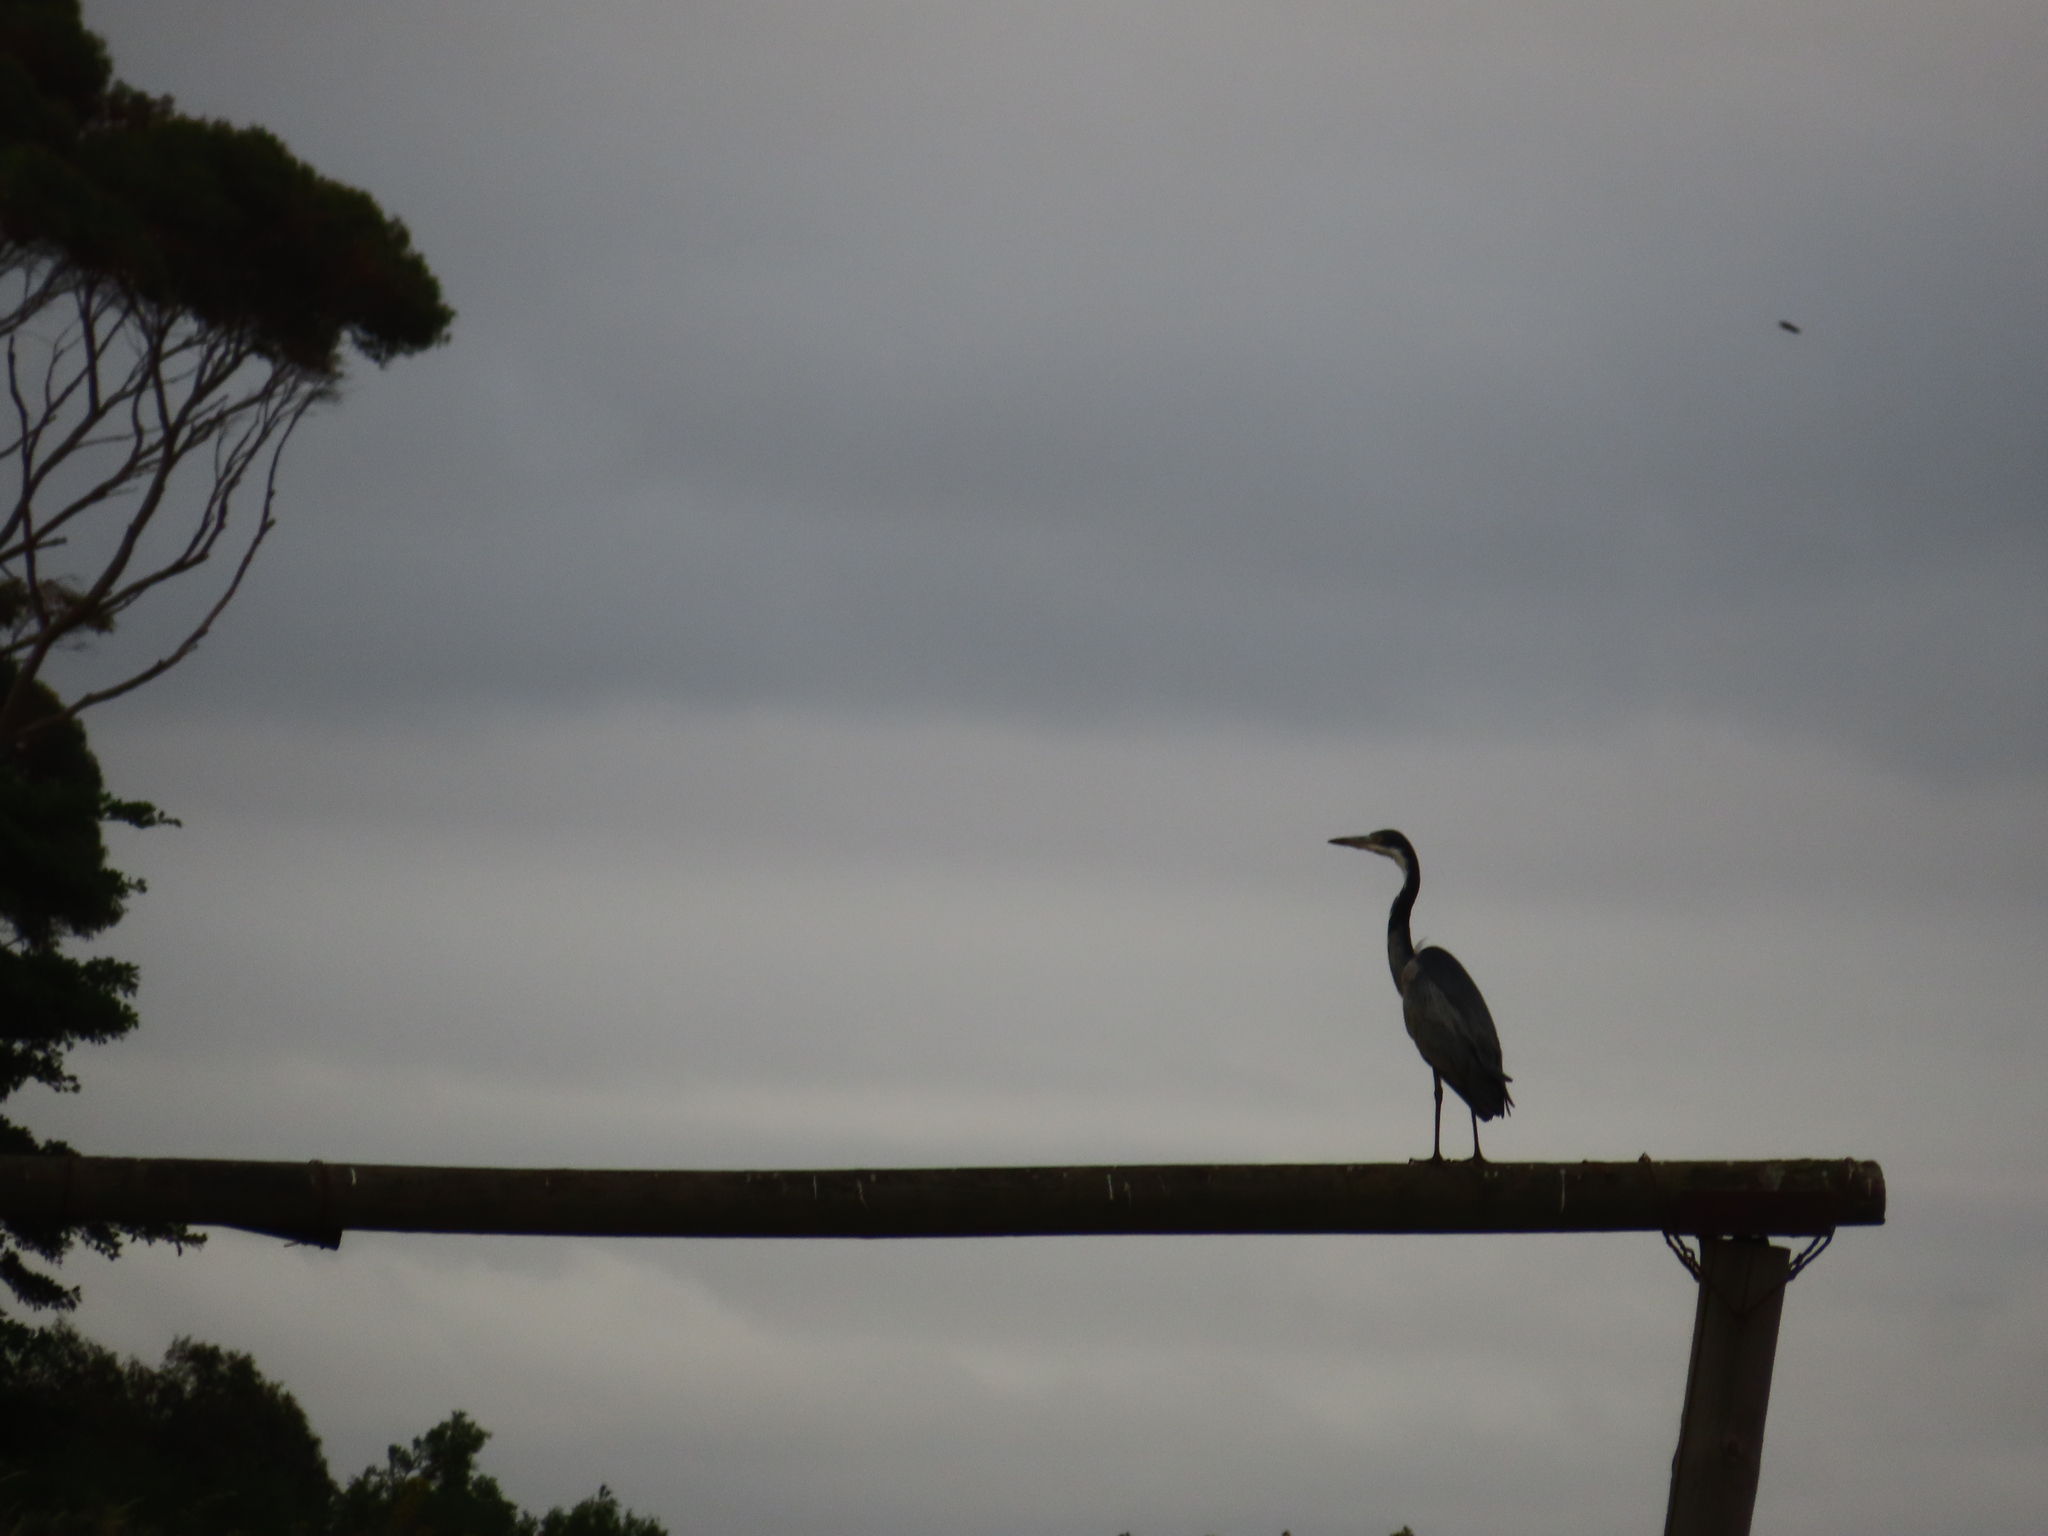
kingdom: Animalia
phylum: Chordata
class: Aves
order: Pelecaniformes
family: Ardeidae
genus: Ardea
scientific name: Ardea melanocephala
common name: Black-headed heron
